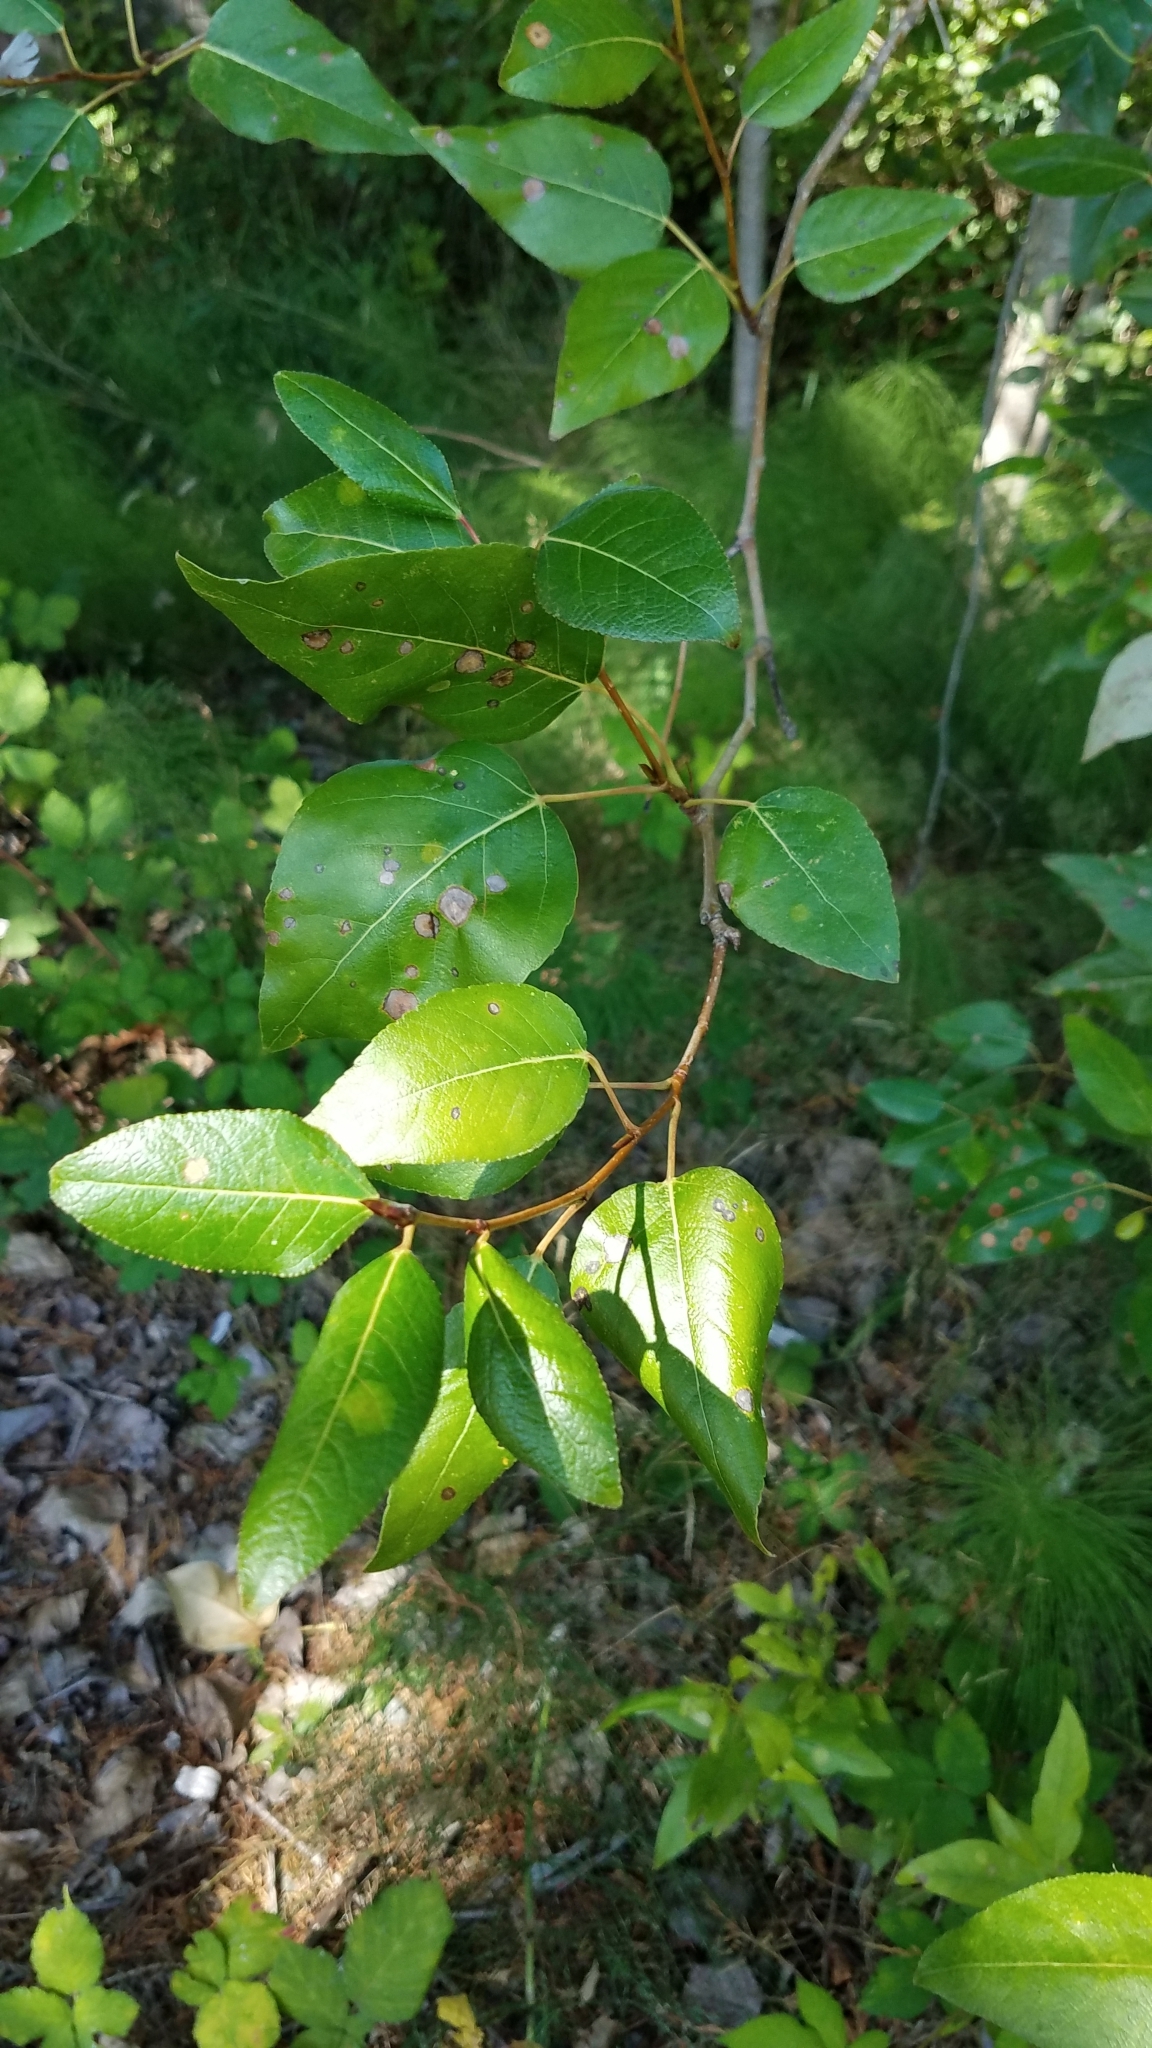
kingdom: Plantae
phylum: Tracheophyta
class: Magnoliopsida
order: Malpighiales
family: Salicaceae
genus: Populus
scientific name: Populus trichocarpa
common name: Black cottonwood
